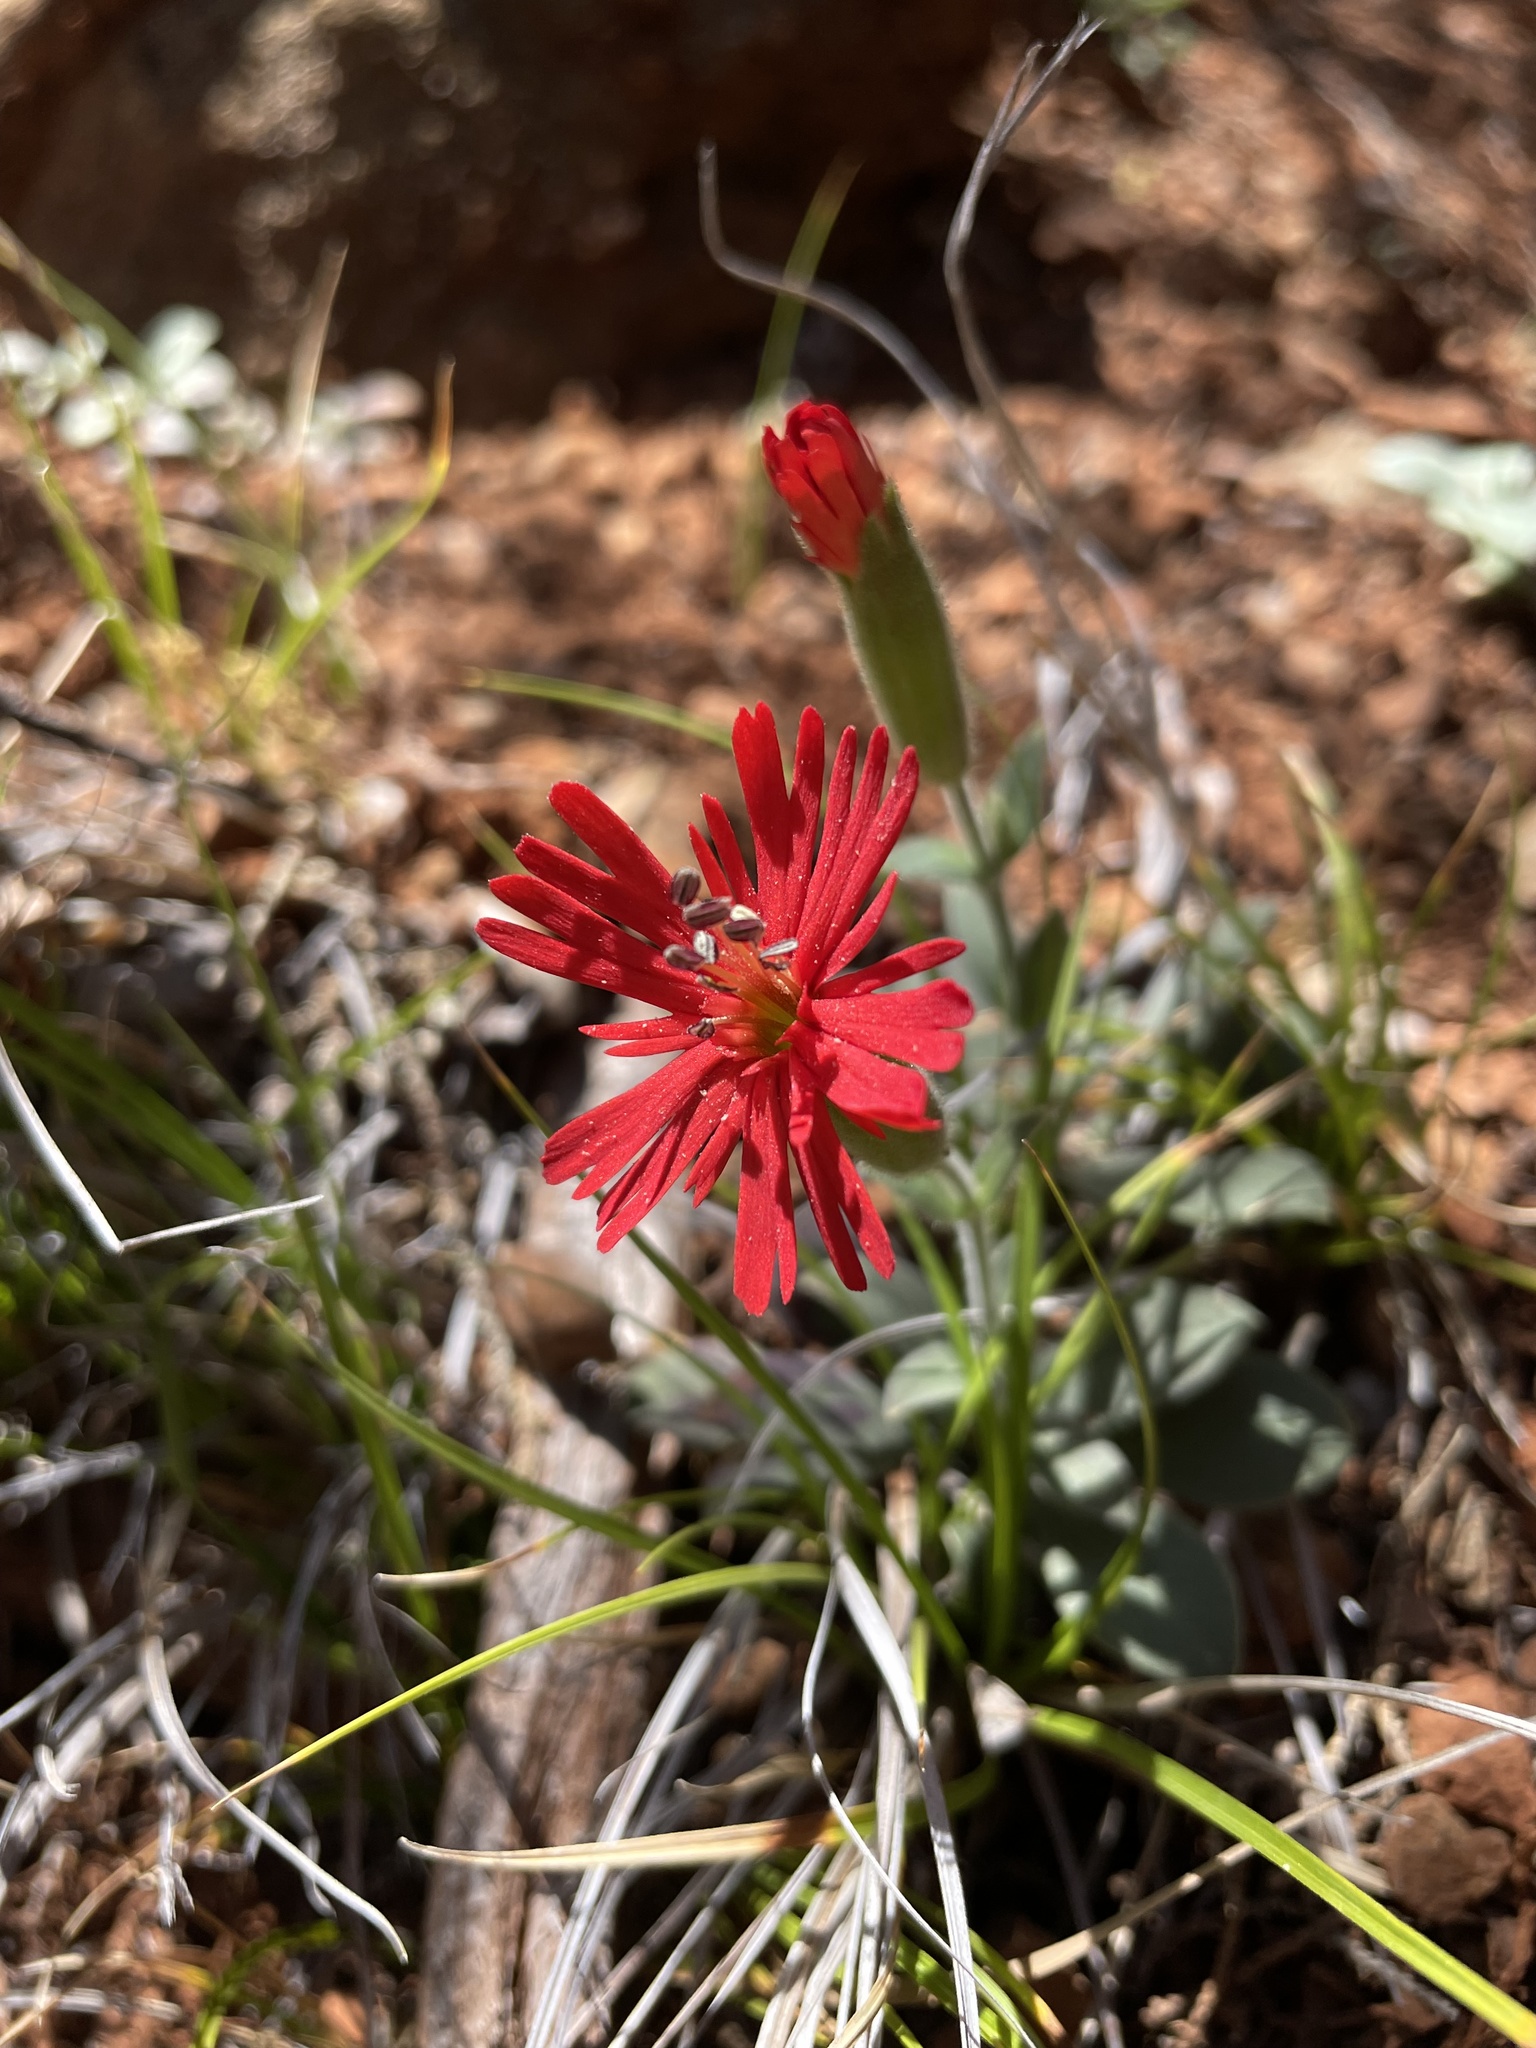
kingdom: Plantae
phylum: Tracheophyta
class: Magnoliopsida
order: Caryophyllales
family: Caryophyllaceae
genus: Silene
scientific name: Silene laciniata
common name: Indian-pink
